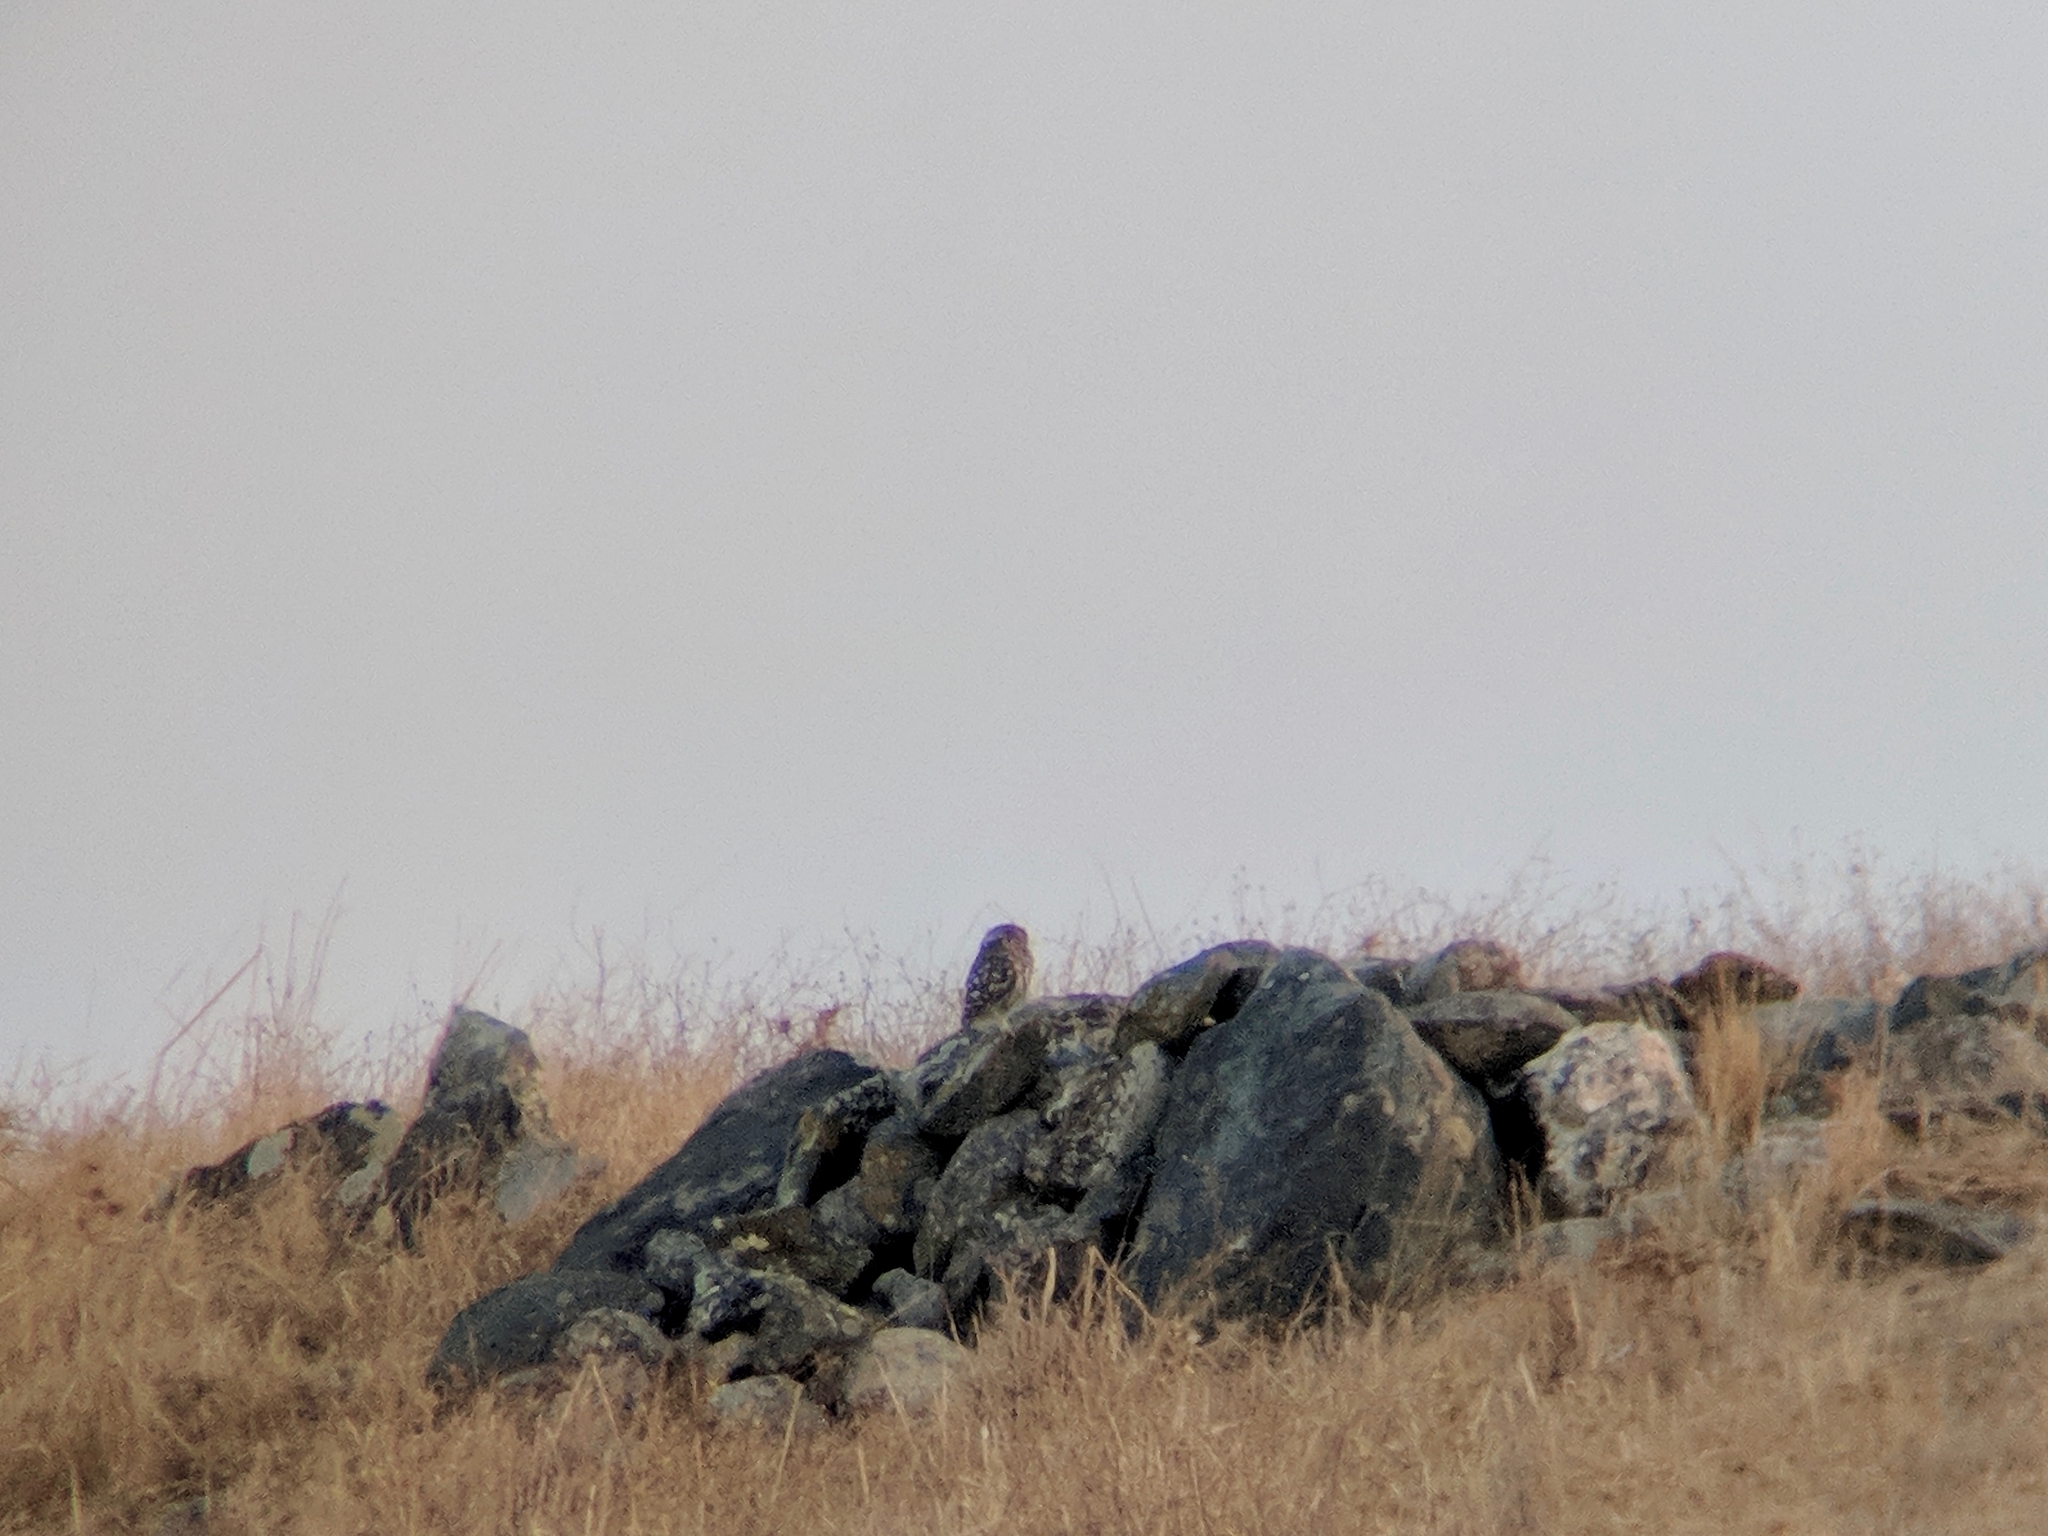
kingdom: Animalia
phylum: Chordata
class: Aves
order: Strigiformes
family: Strigidae
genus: Athene
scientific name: Athene noctua
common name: Little owl
